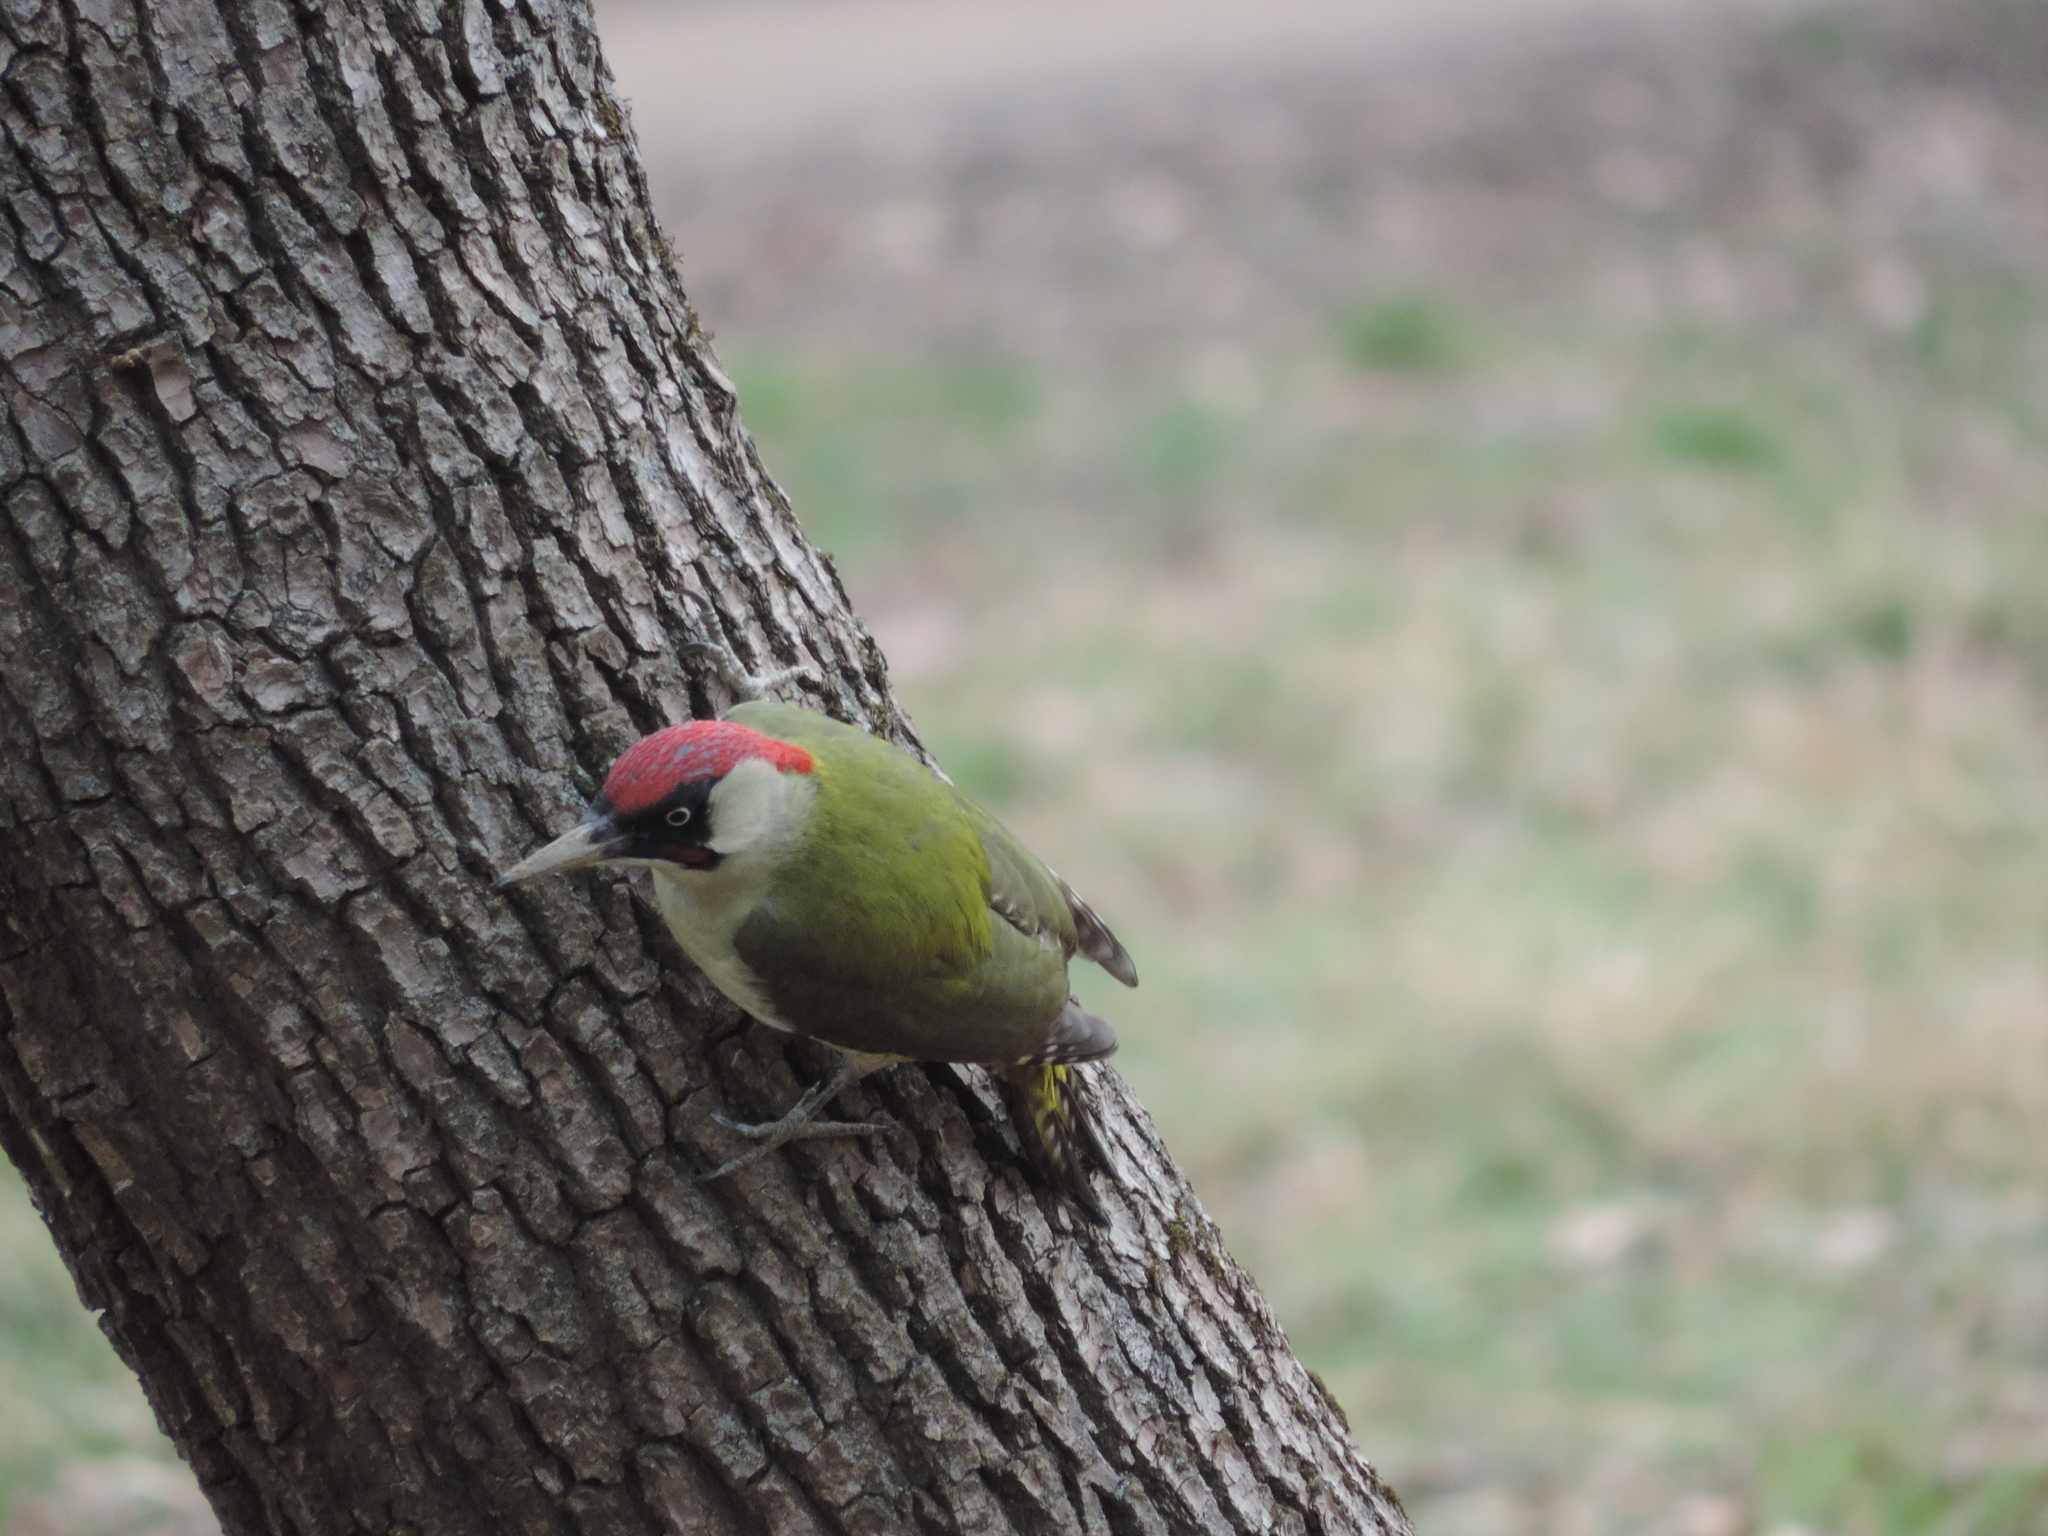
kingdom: Animalia
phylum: Chordata
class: Aves
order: Piciformes
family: Picidae
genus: Picus
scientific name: Picus viridis
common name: European green woodpecker
